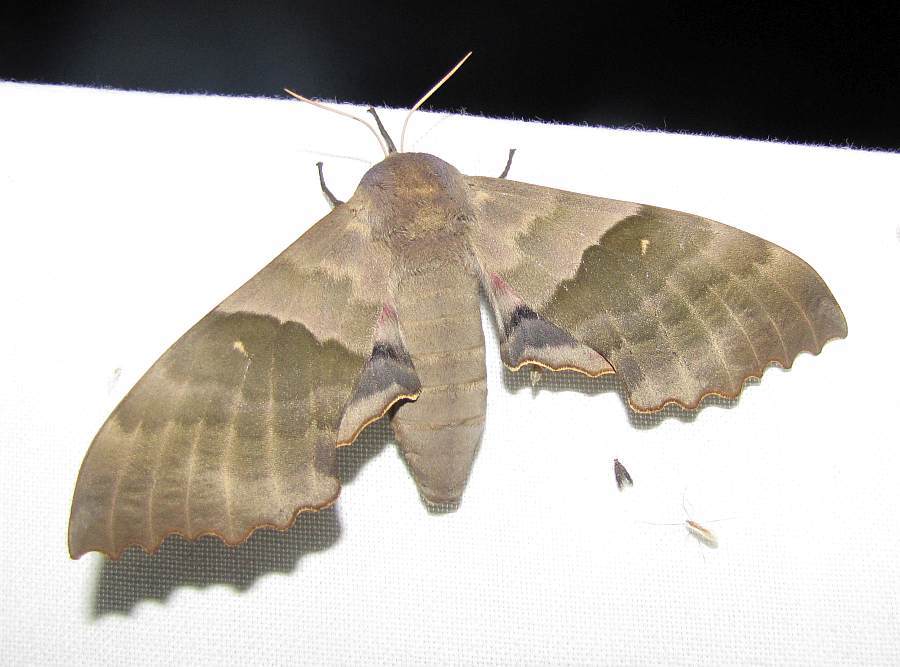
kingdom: Animalia
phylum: Arthropoda
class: Insecta
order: Lepidoptera
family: Sphingidae
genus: Pachysphinx
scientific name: Pachysphinx modesta
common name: Big poplar sphinx
